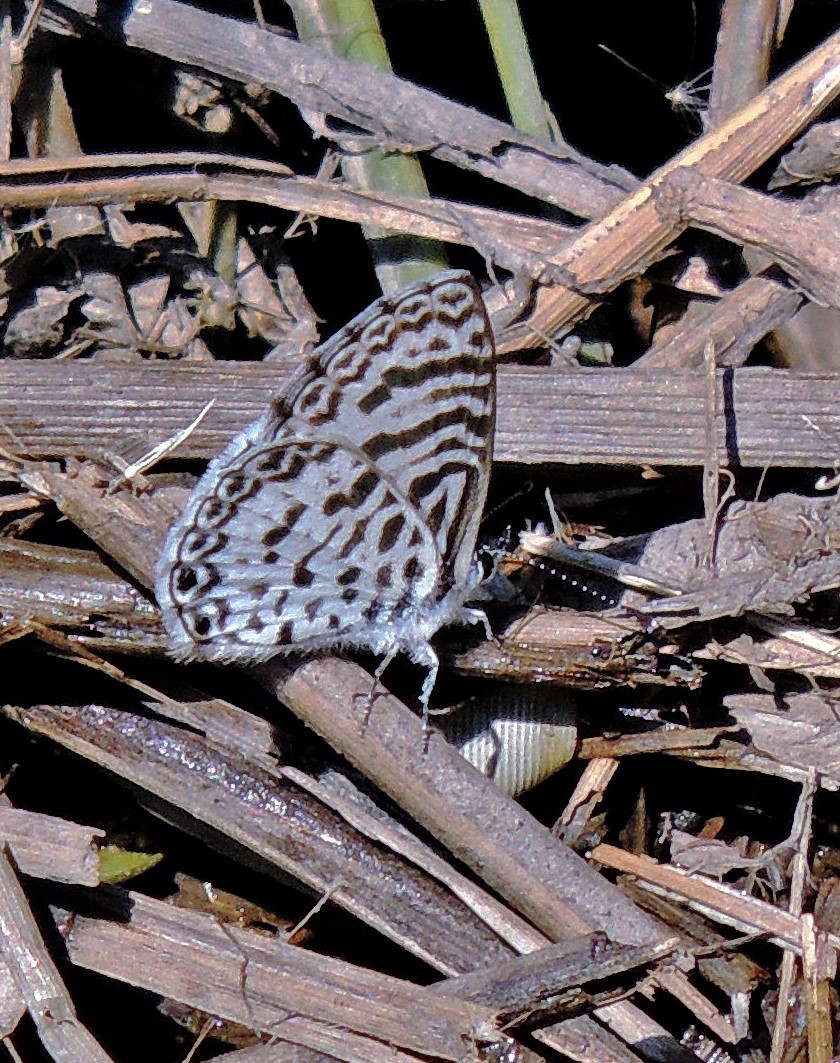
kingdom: Animalia
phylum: Arthropoda
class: Insecta
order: Lepidoptera
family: Lycaenidae
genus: Leptotes
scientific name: Leptotes cassius
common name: Cassius blue
